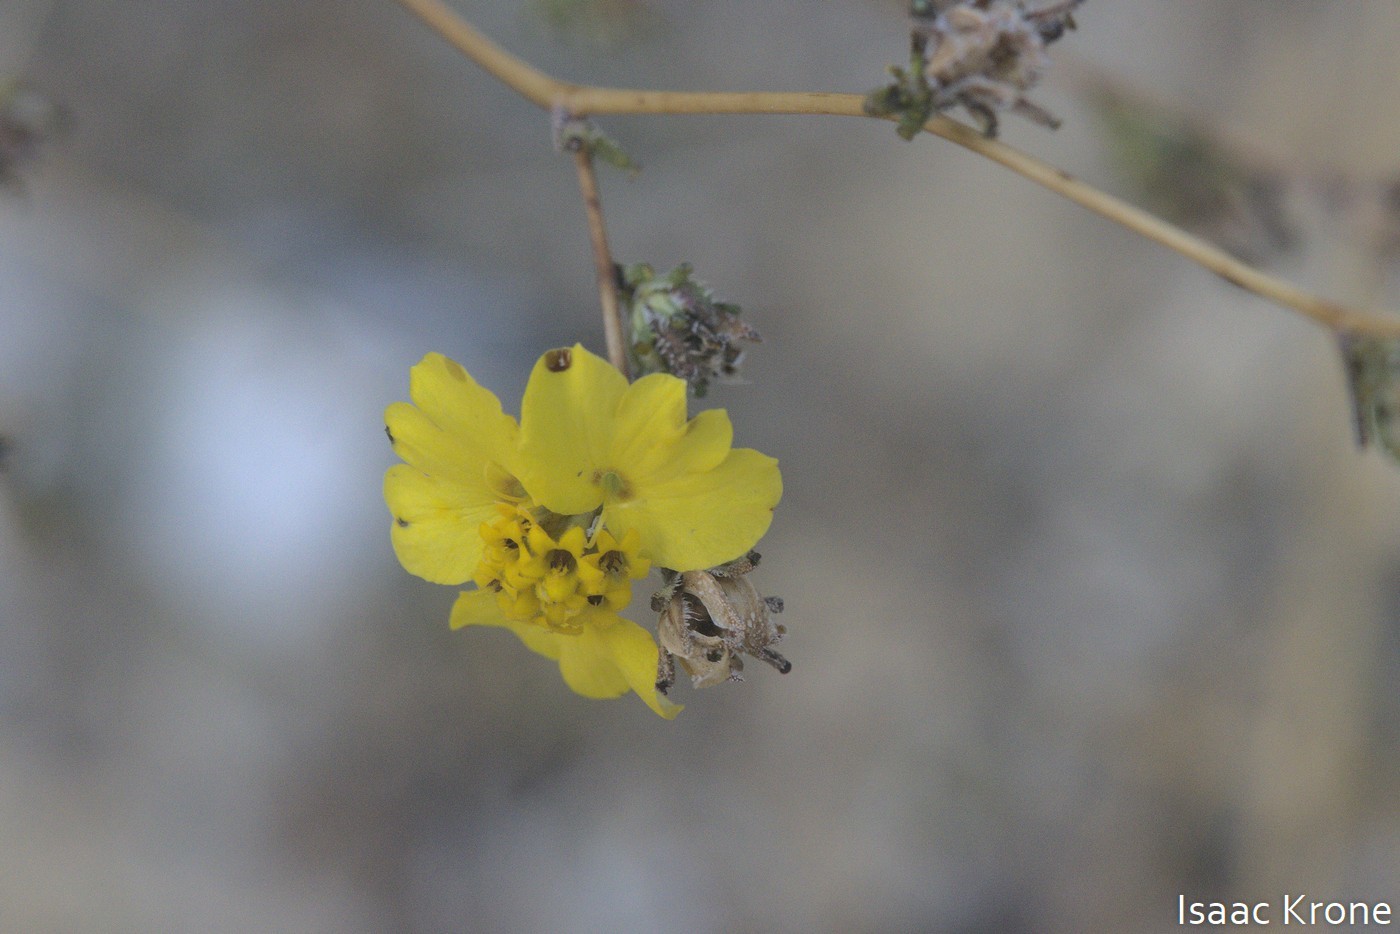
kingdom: Plantae
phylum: Tracheophyta
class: Magnoliopsida
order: Asterales
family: Asteraceae
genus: Calycadenia
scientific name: Calycadenia truncata
